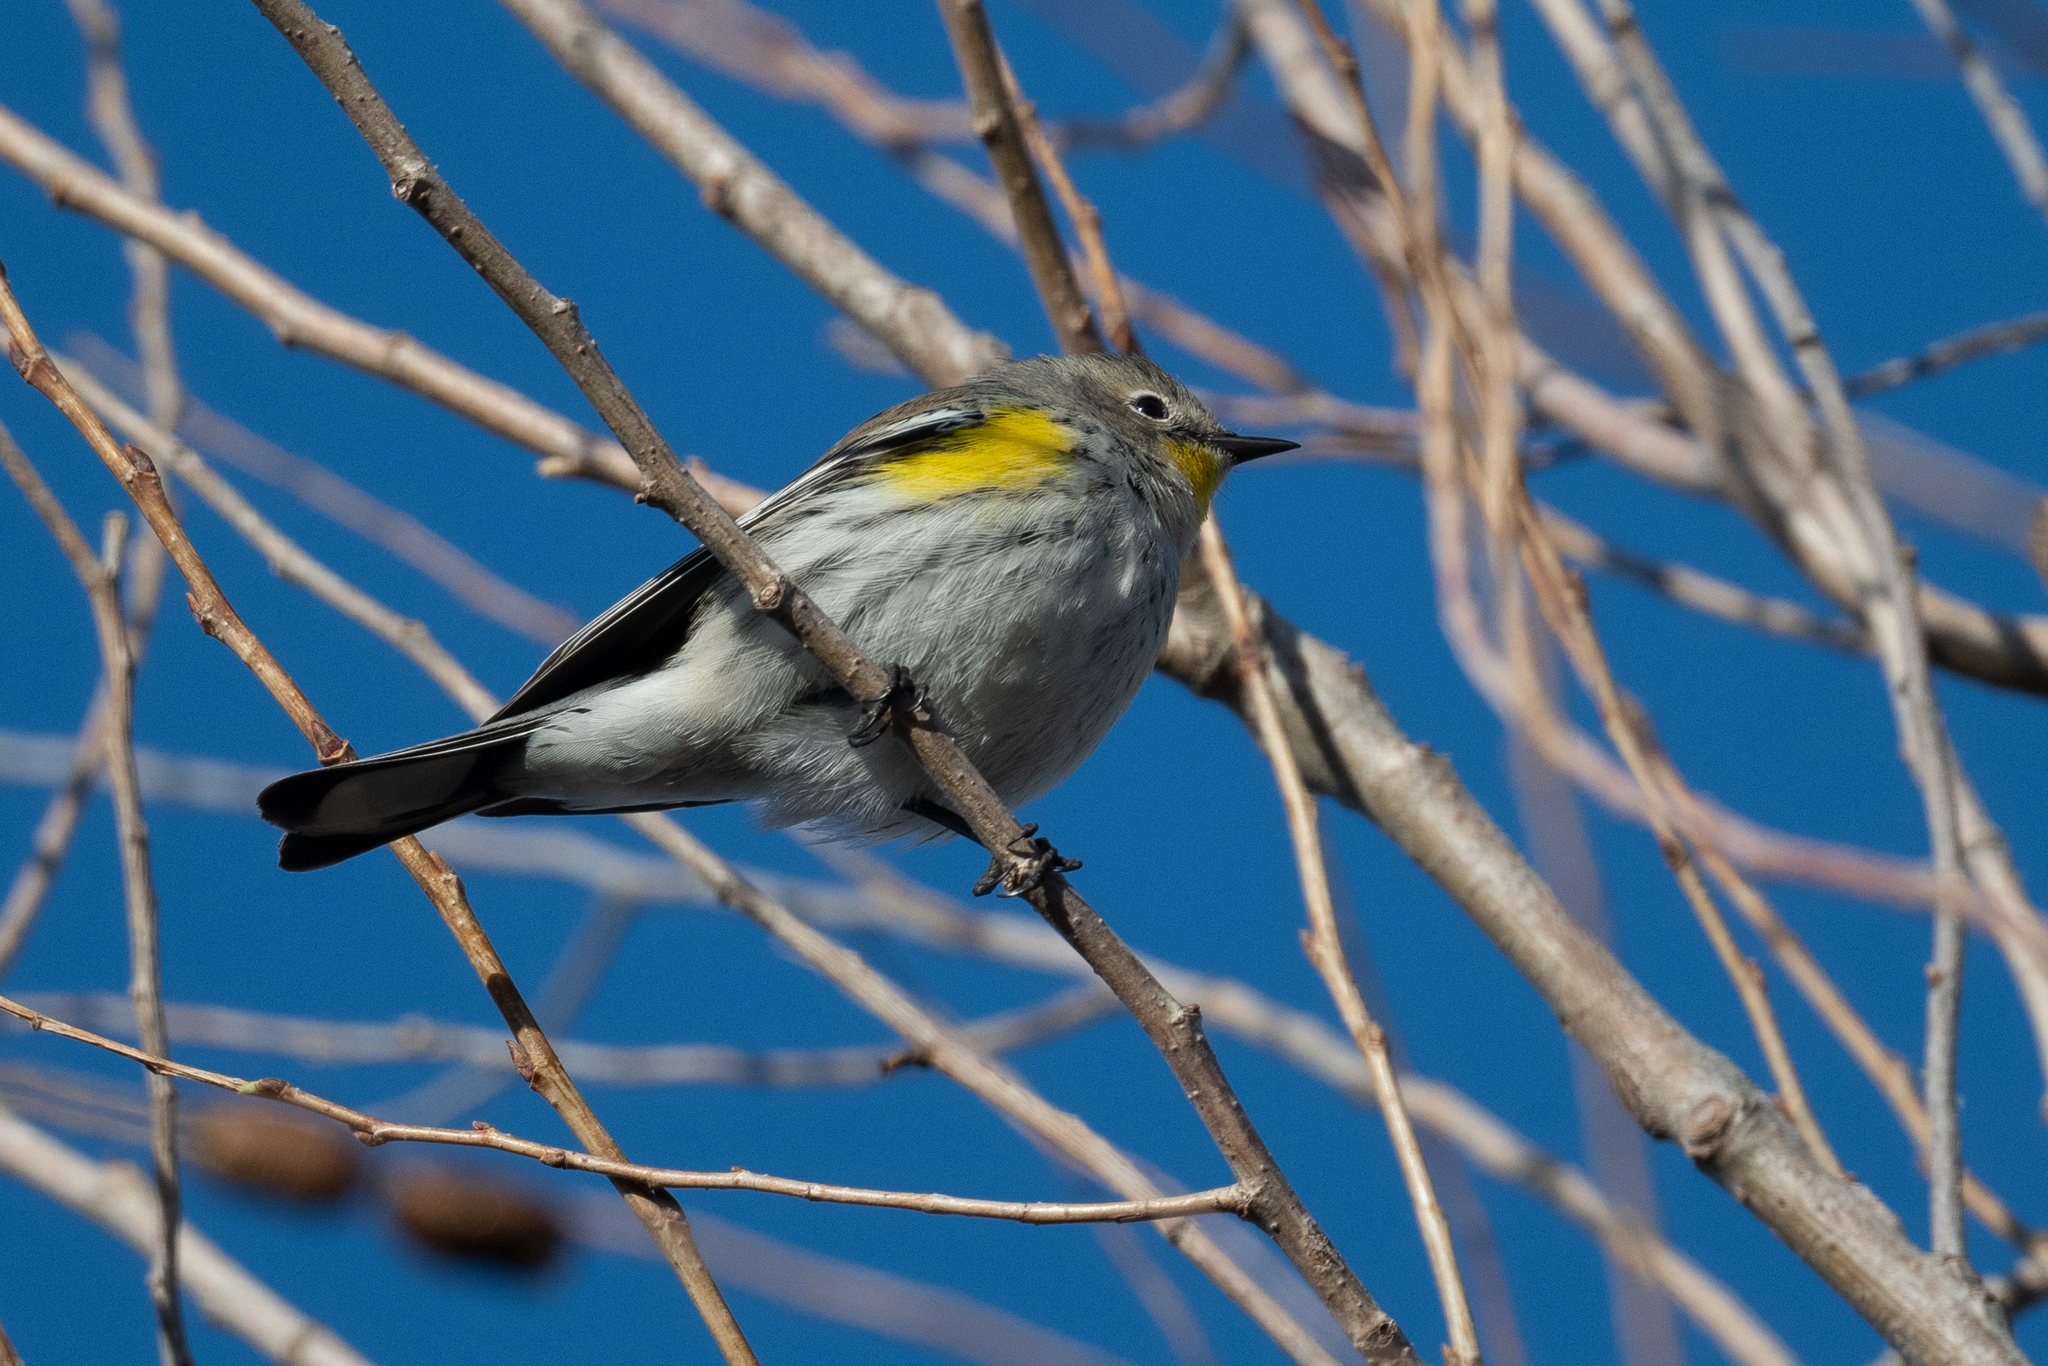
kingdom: Animalia
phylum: Chordata
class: Aves
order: Passeriformes
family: Parulidae
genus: Setophaga
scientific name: Setophaga coronata
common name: Myrtle warbler
